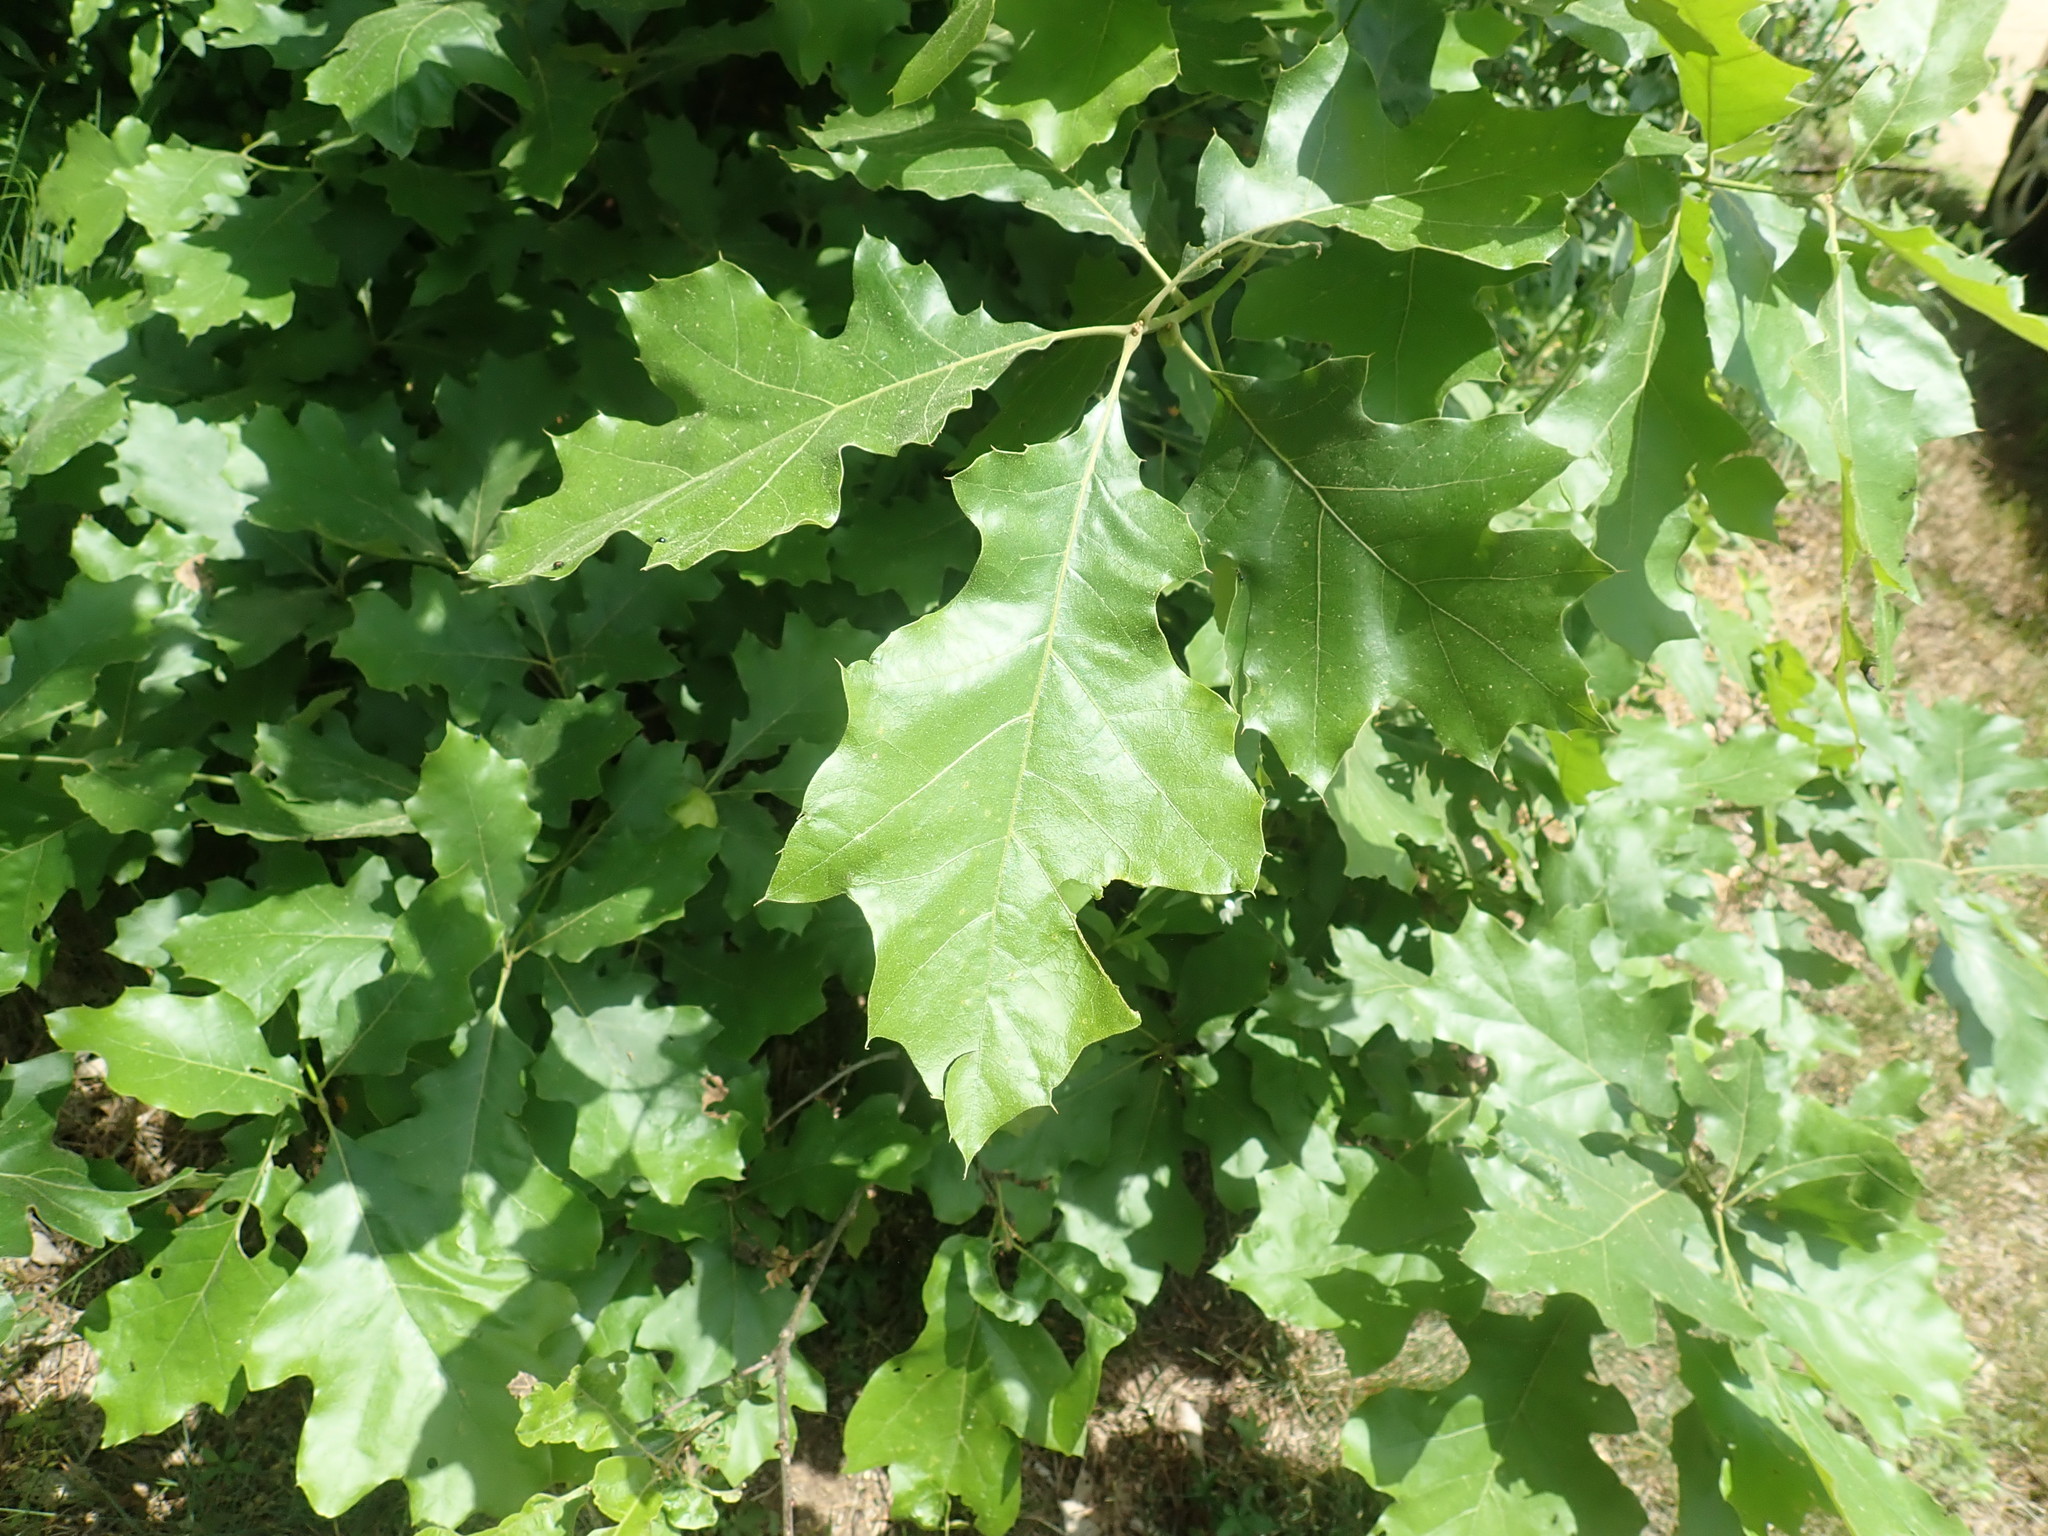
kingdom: Plantae
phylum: Tracheophyta
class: Magnoliopsida
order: Fagales
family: Fagaceae
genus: Quercus
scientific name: Quercus velutina
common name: Black oak
